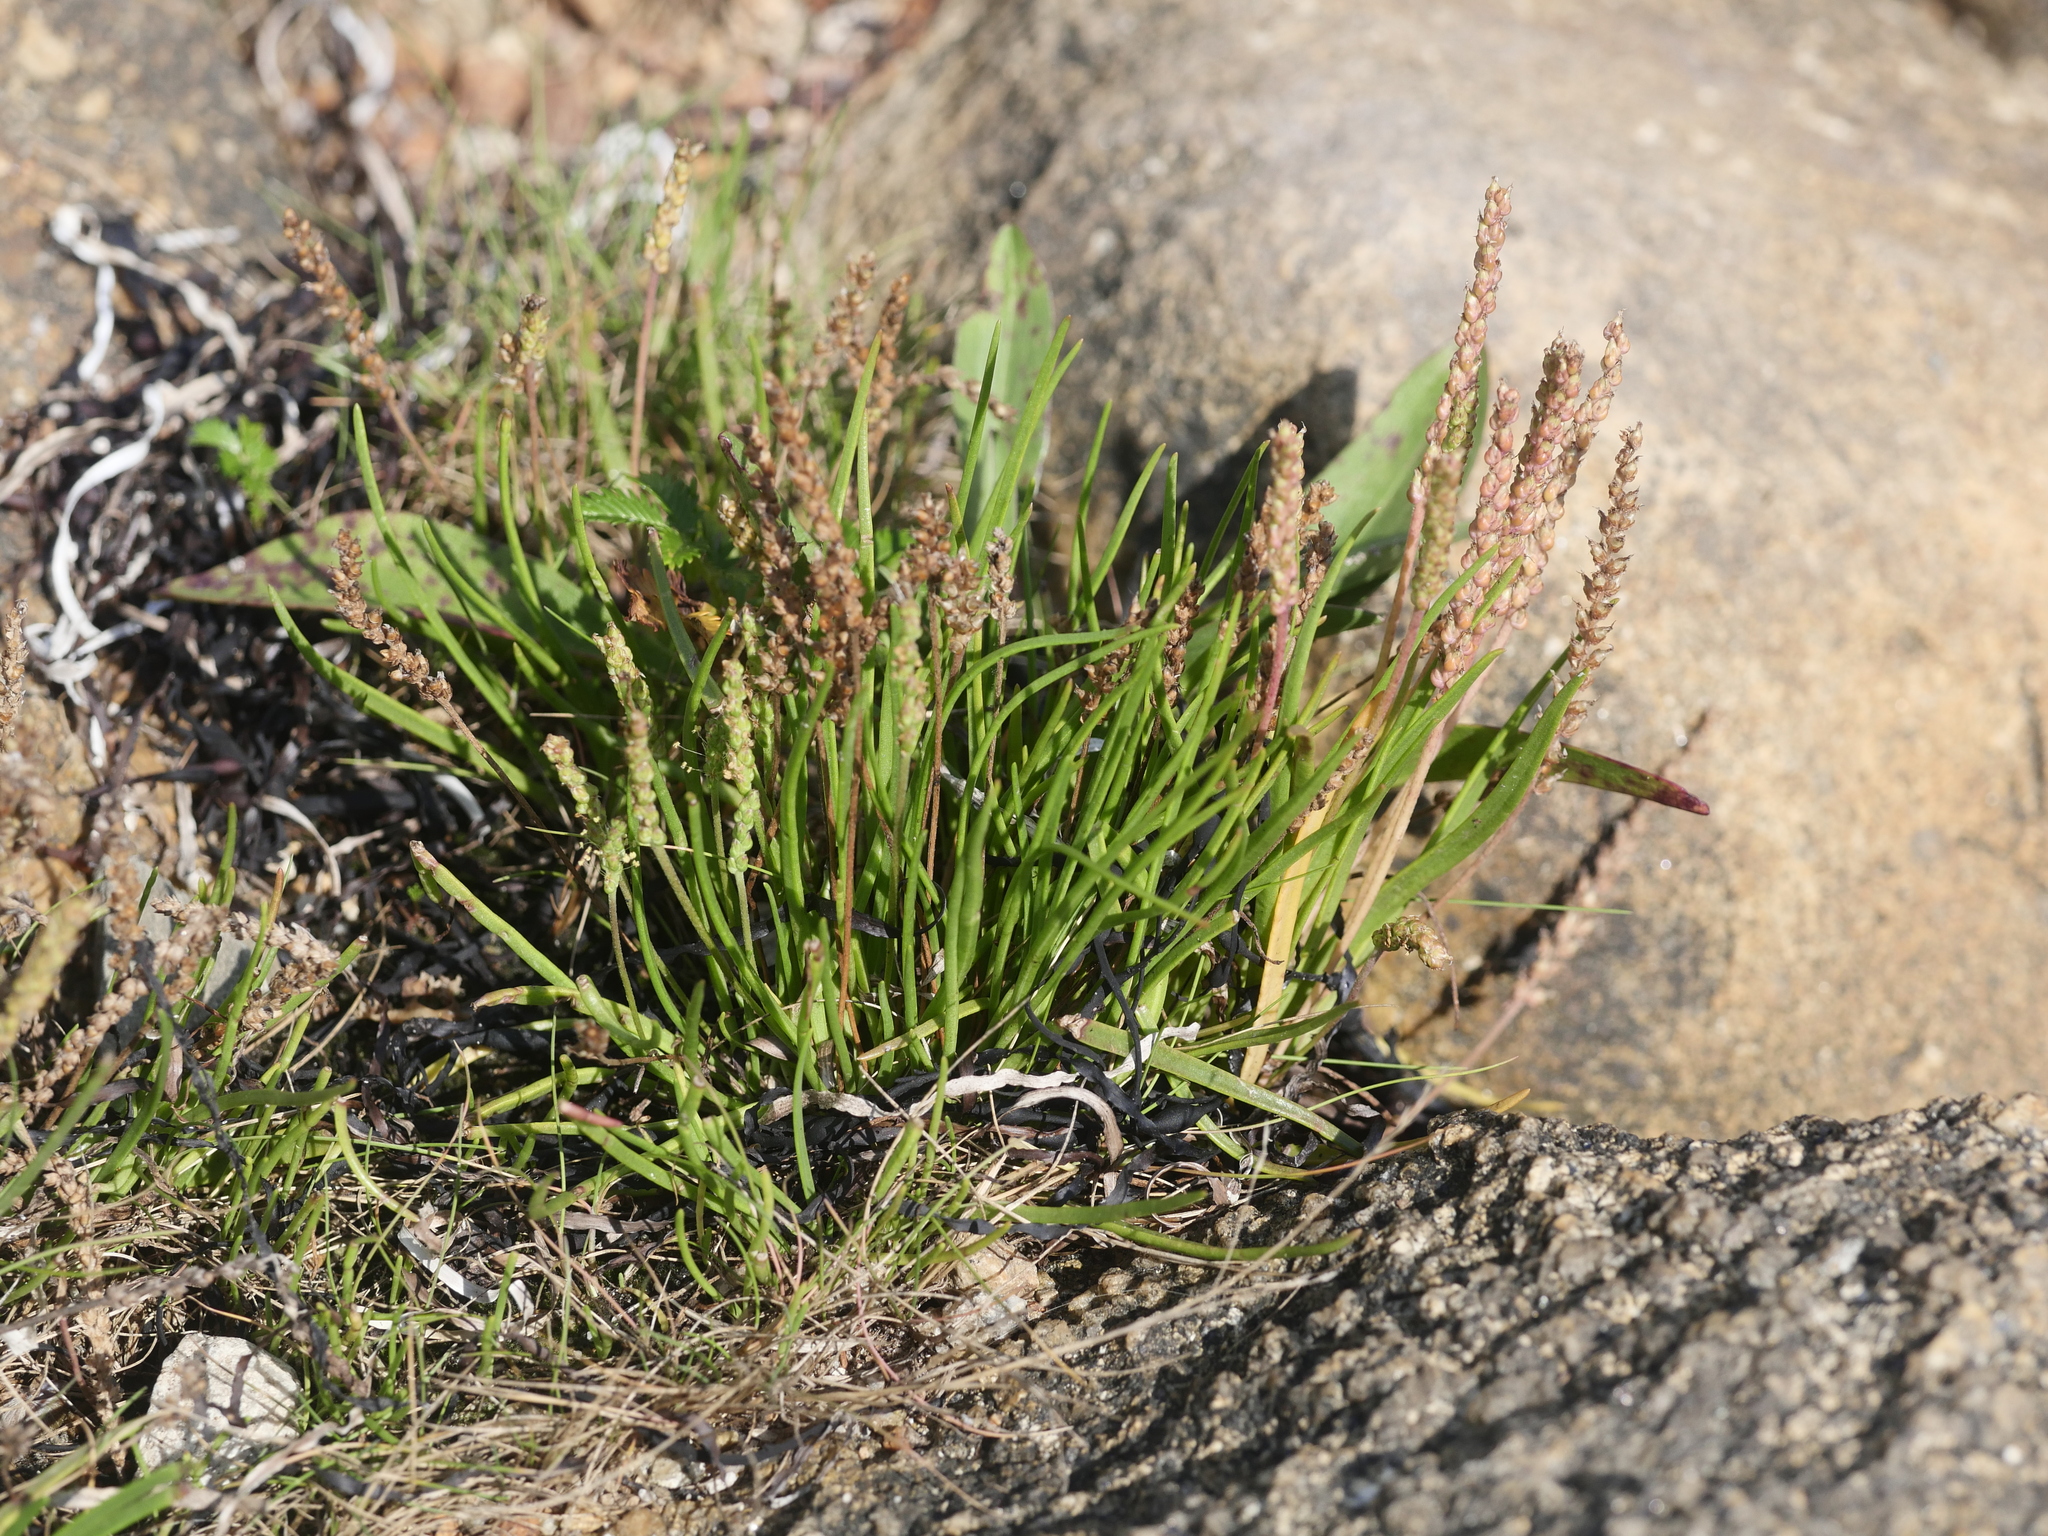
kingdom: Plantae
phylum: Tracheophyta
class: Magnoliopsida
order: Lamiales
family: Plantaginaceae
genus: Plantago
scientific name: Plantago maritima
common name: Sea plantain
